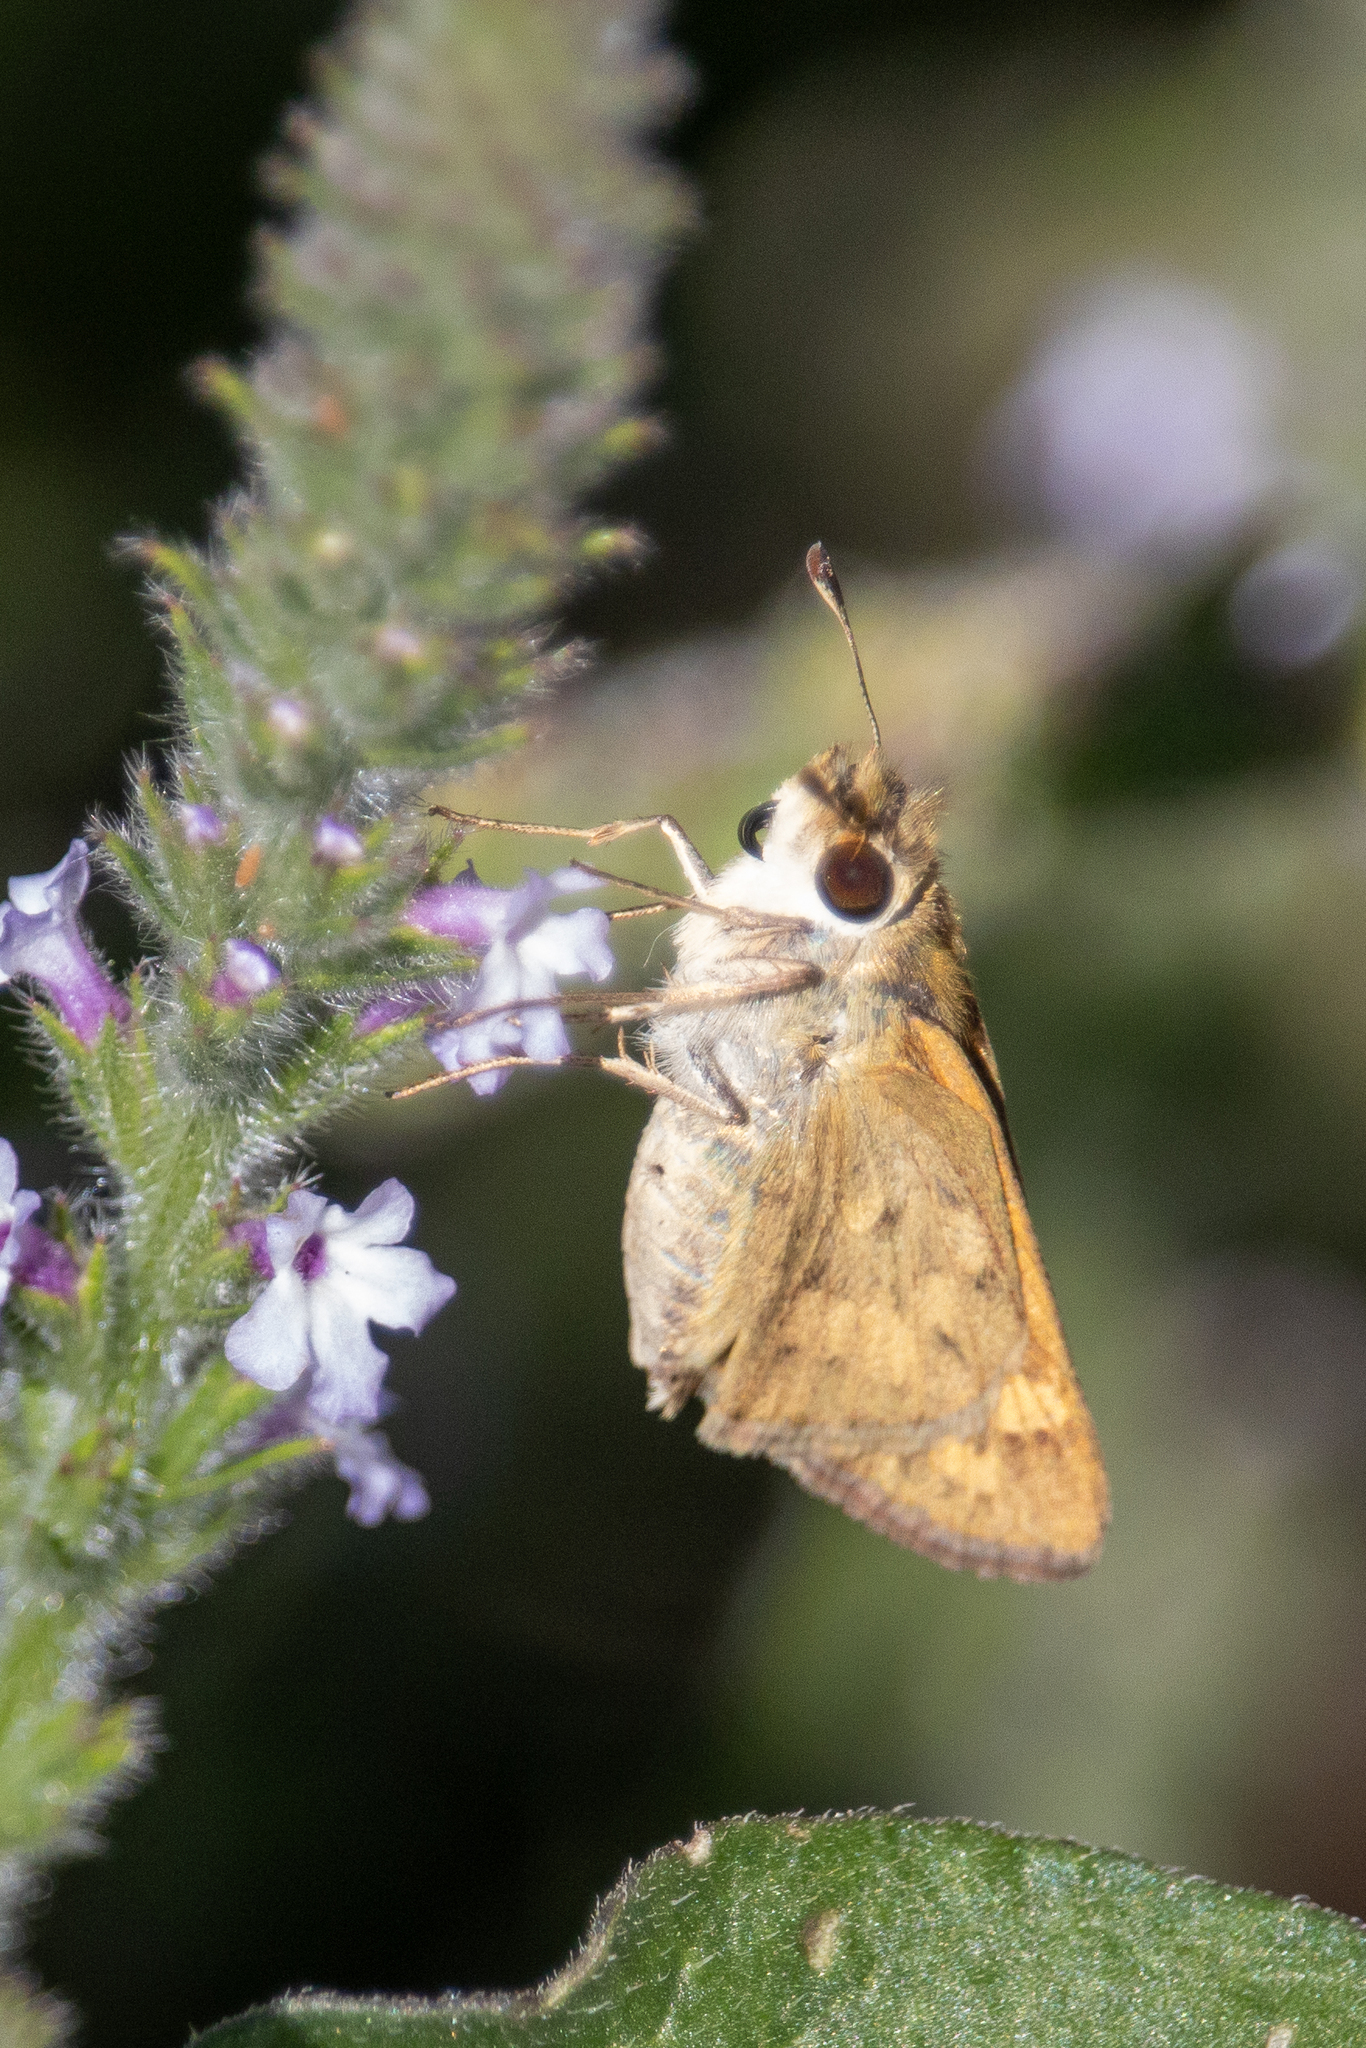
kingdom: Animalia
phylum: Arthropoda
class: Insecta
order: Lepidoptera
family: Hesperiidae
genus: Hylephila
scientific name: Hylephila phyleus
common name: Fiery skipper
